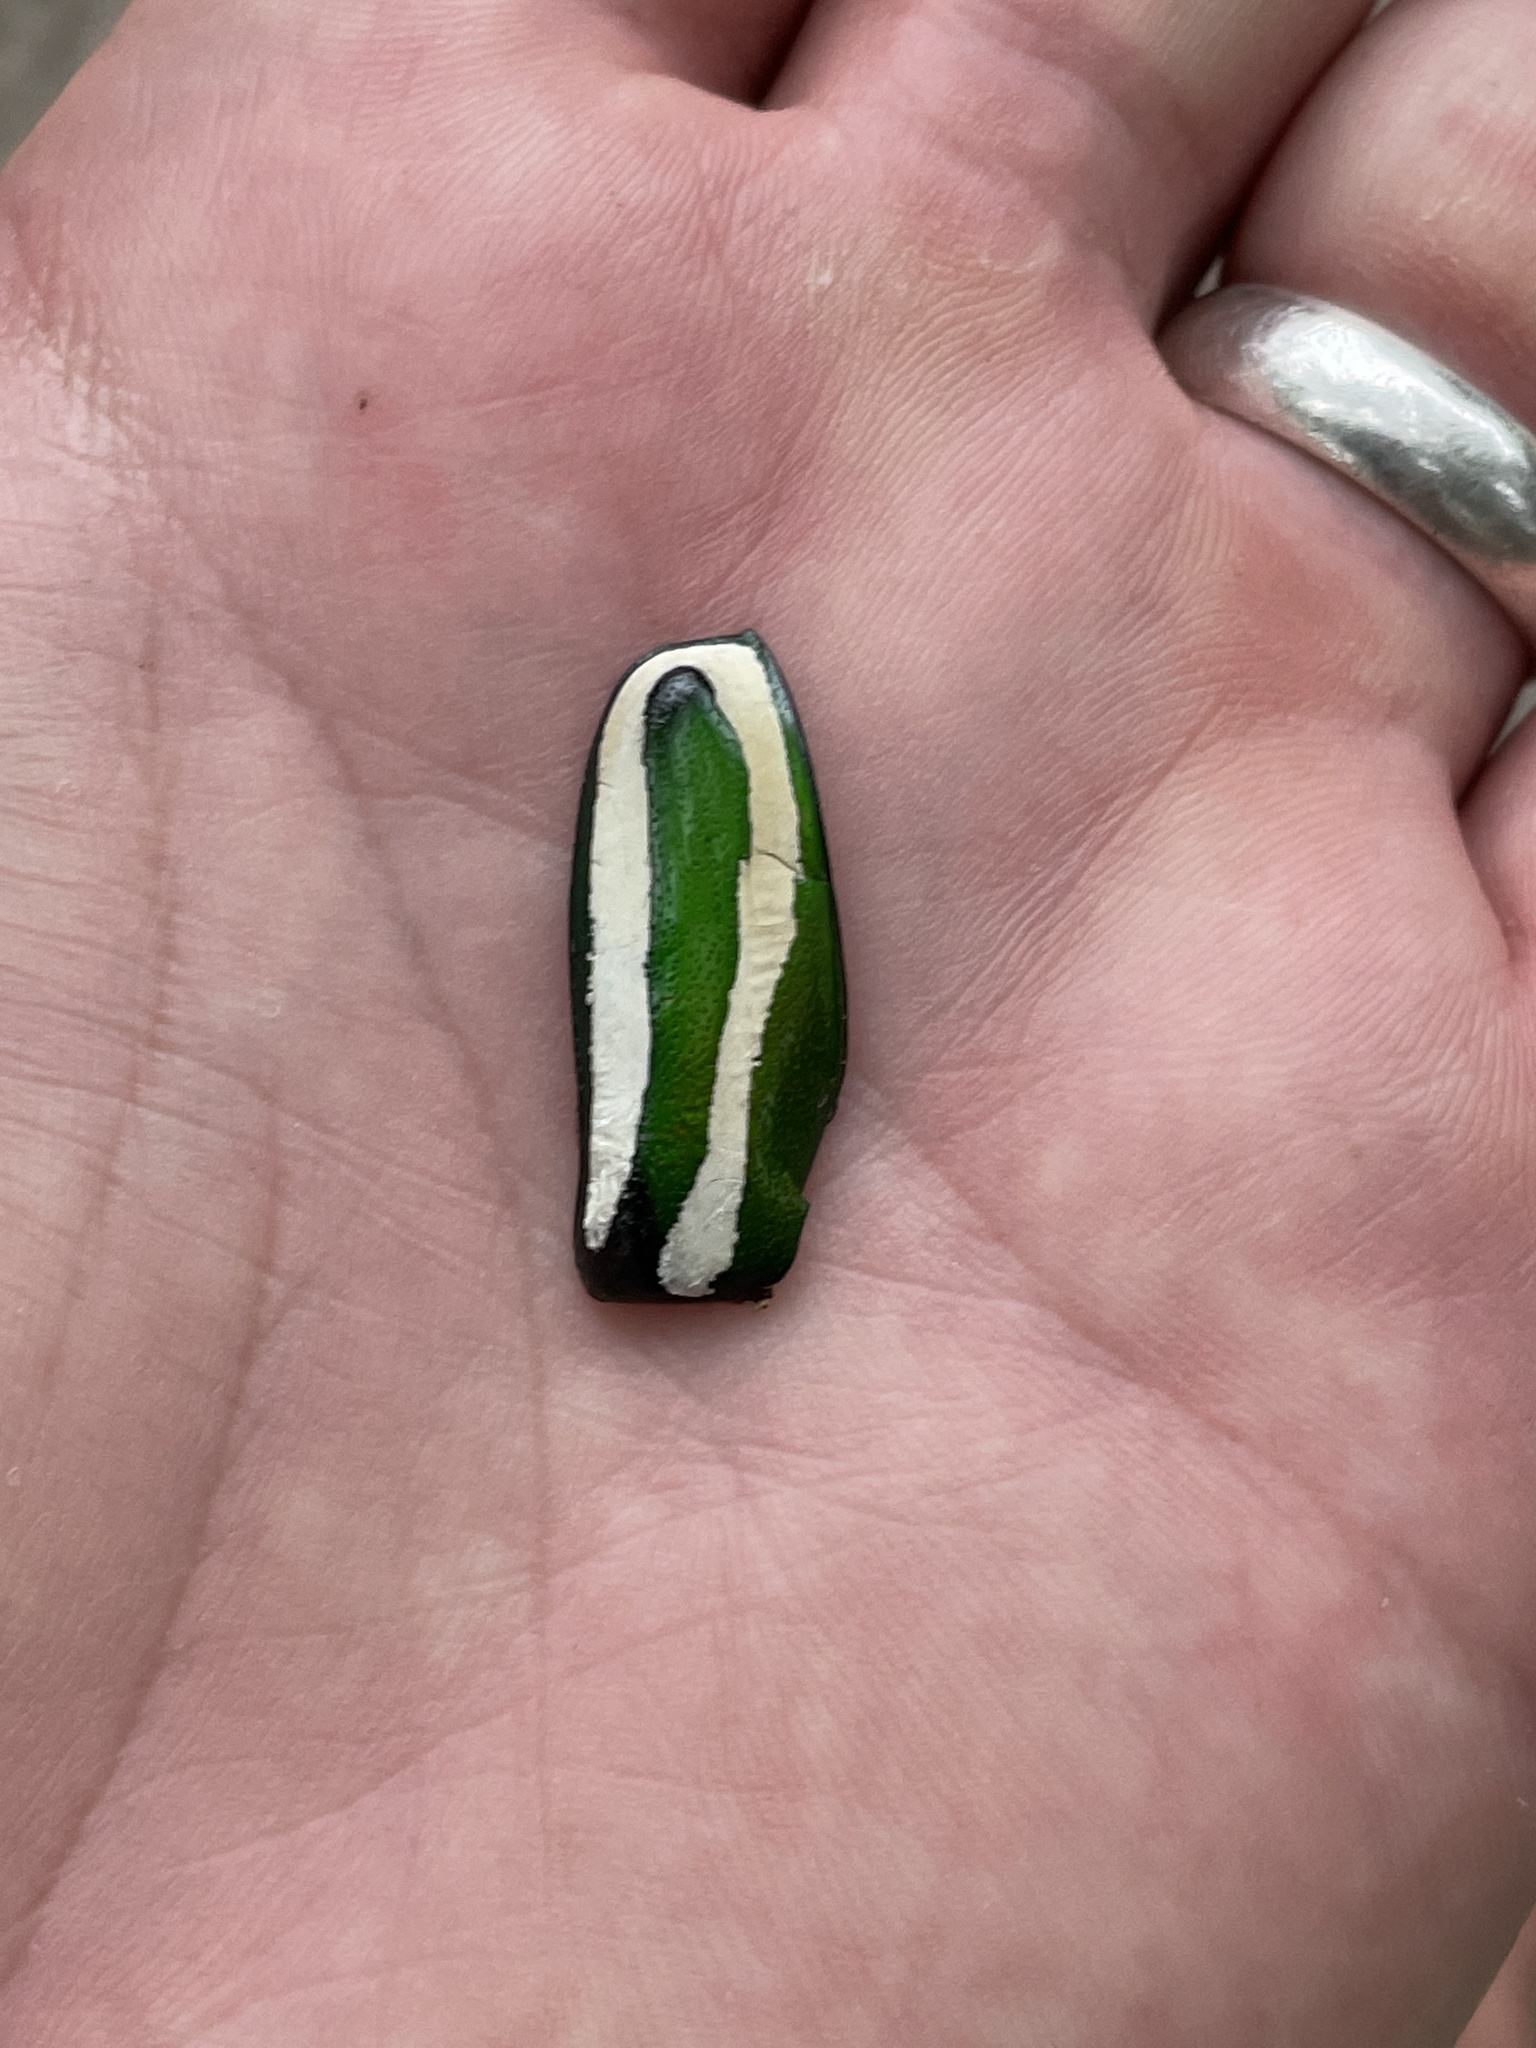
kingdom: Animalia
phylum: Arthropoda
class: Insecta
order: Coleoptera
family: Scarabaeidae
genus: Dicronorhina
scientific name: Dicronorhina derbyana
